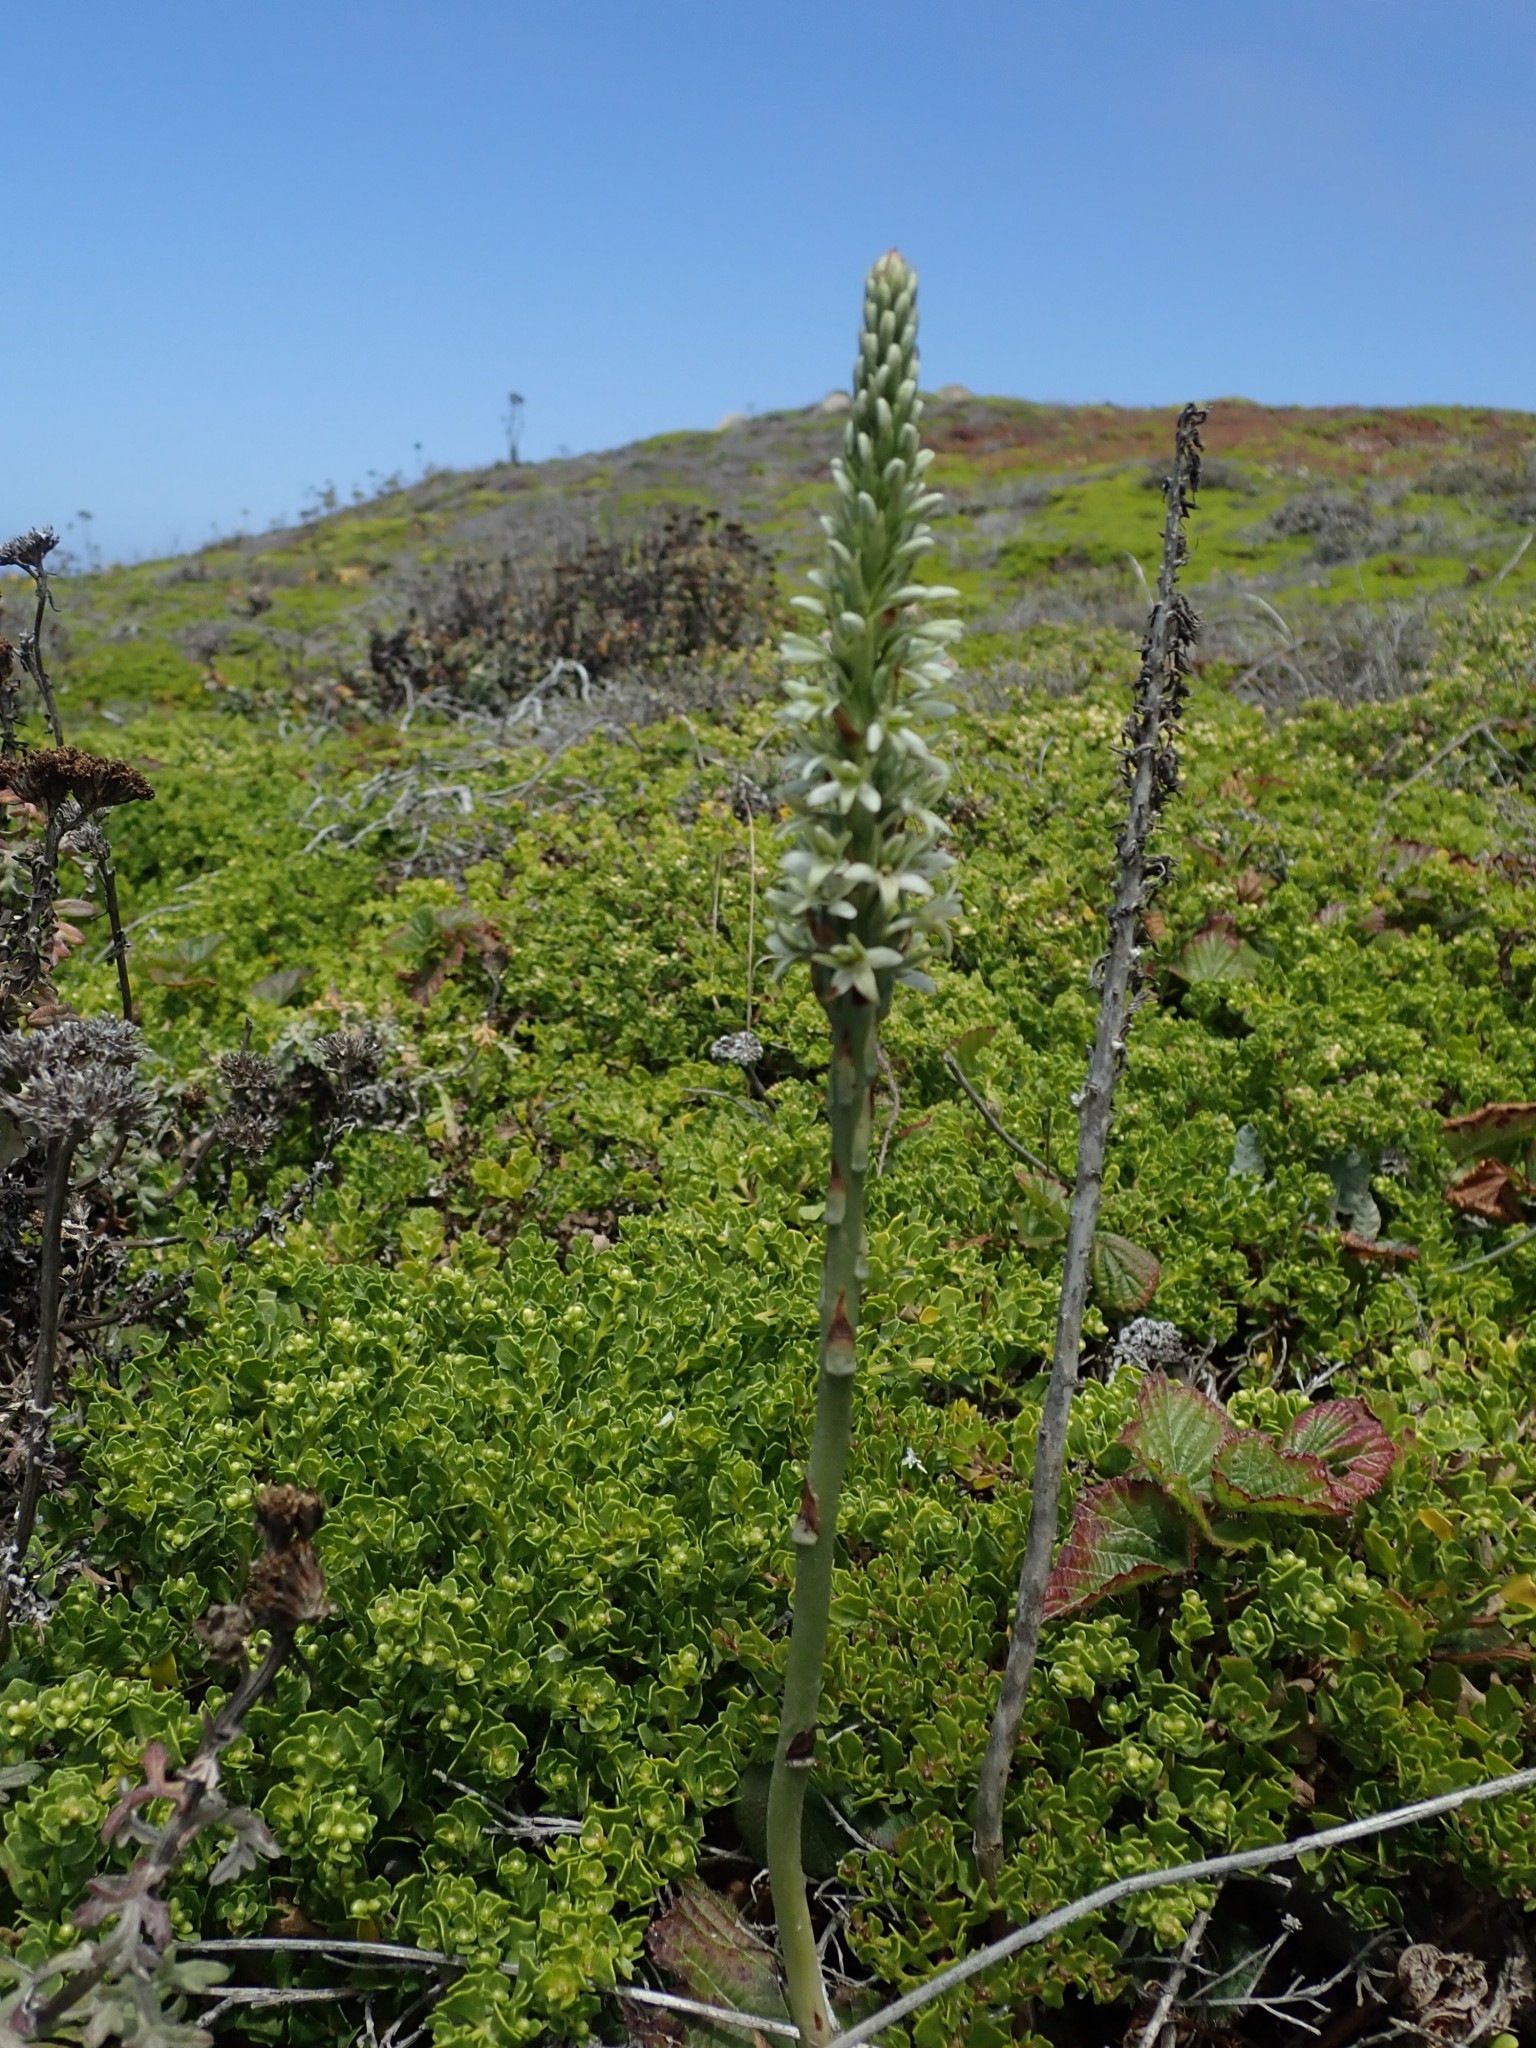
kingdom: Plantae
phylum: Tracheophyta
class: Liliopsida
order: Asparagales
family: Orchidaceae
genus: Platanthera
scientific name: Platanthera elegans
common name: Coast piperia
